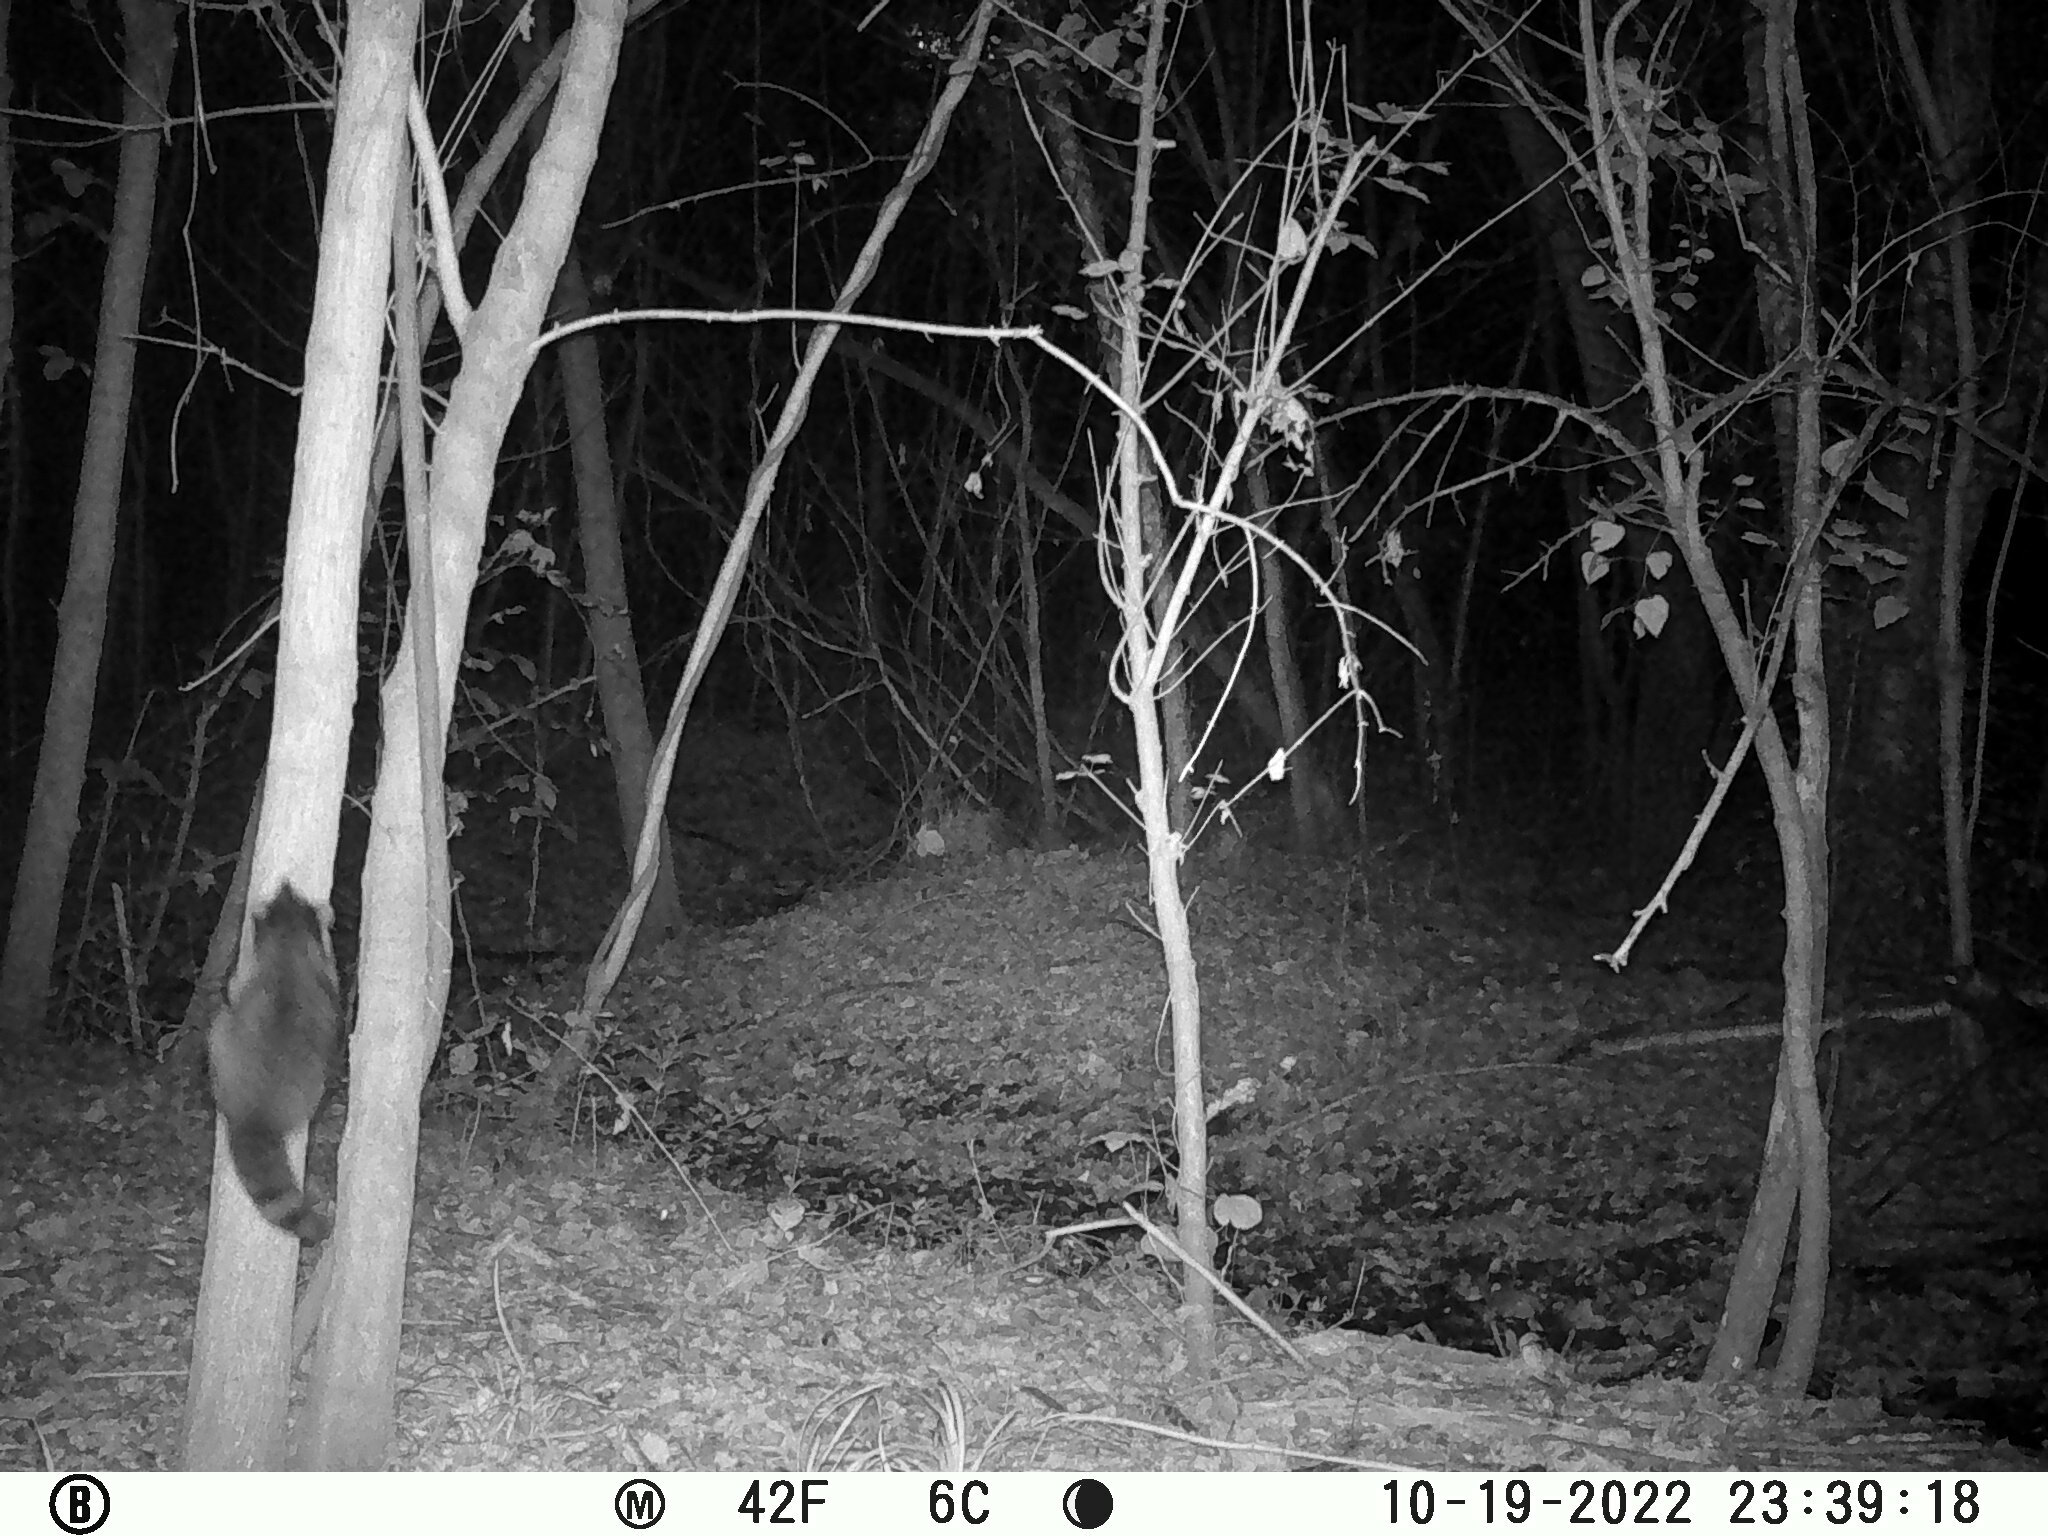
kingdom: Animalia
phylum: Chordata
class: Mammalia
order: Carnivora
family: Procyonidae
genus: Procyon
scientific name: Procyon lotor
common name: Raccoon
